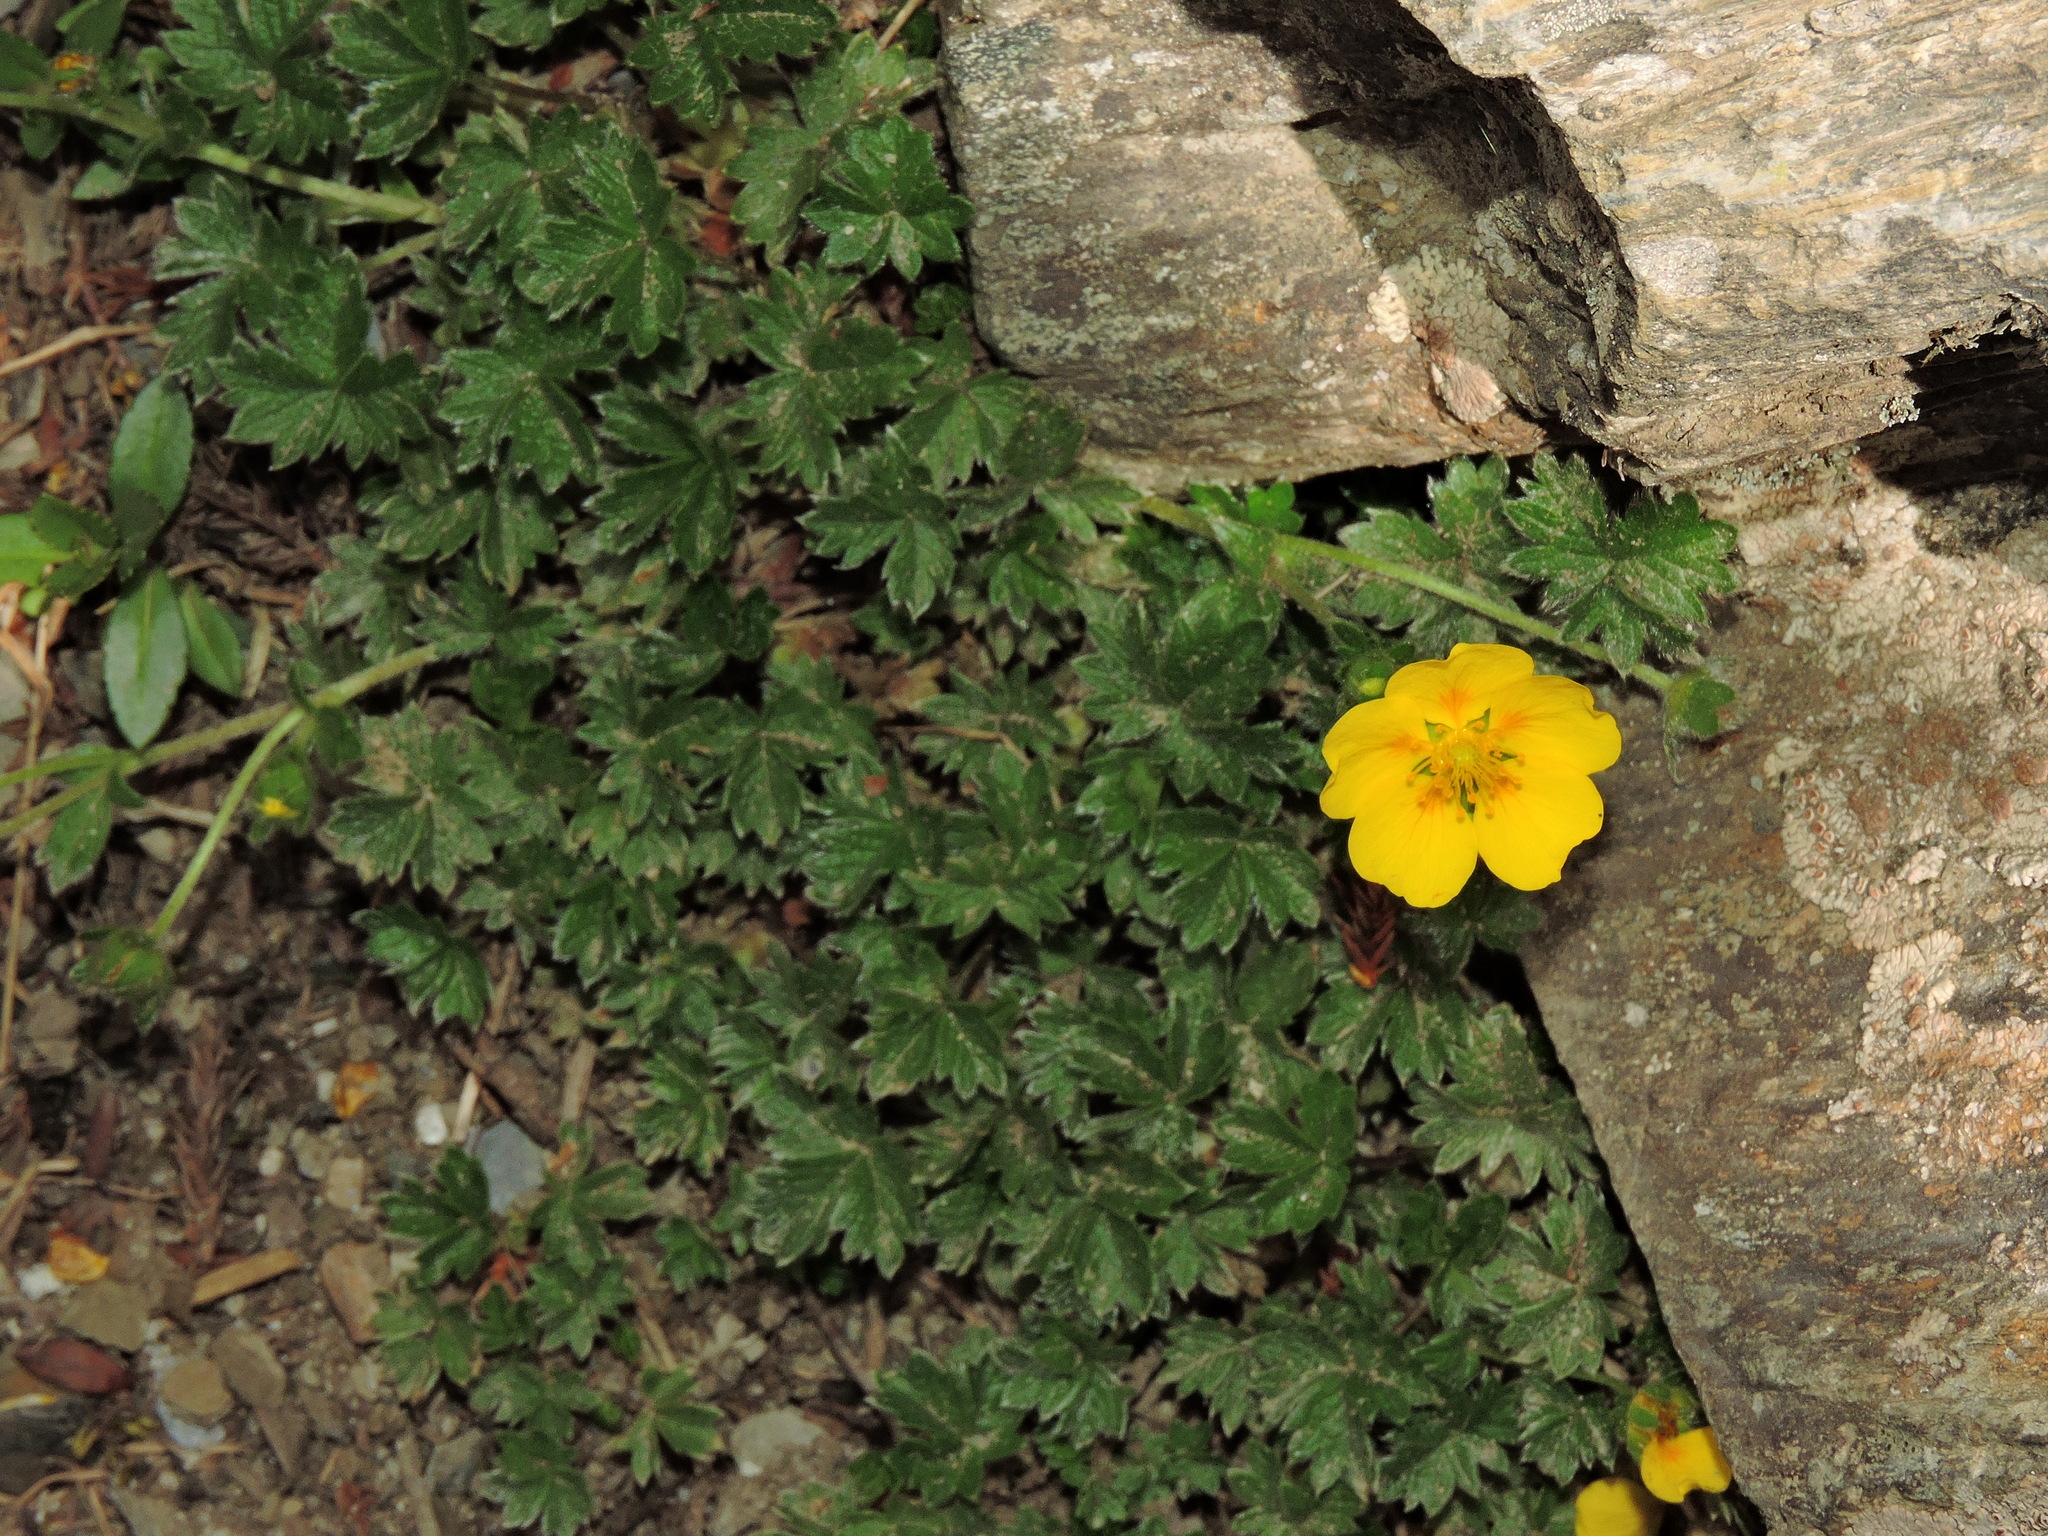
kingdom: Plantae
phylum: Tracheophyta
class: Magnoliopsida
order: Rosales
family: Rosaceae
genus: Potentilla
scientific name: Potentilla matsumurae
